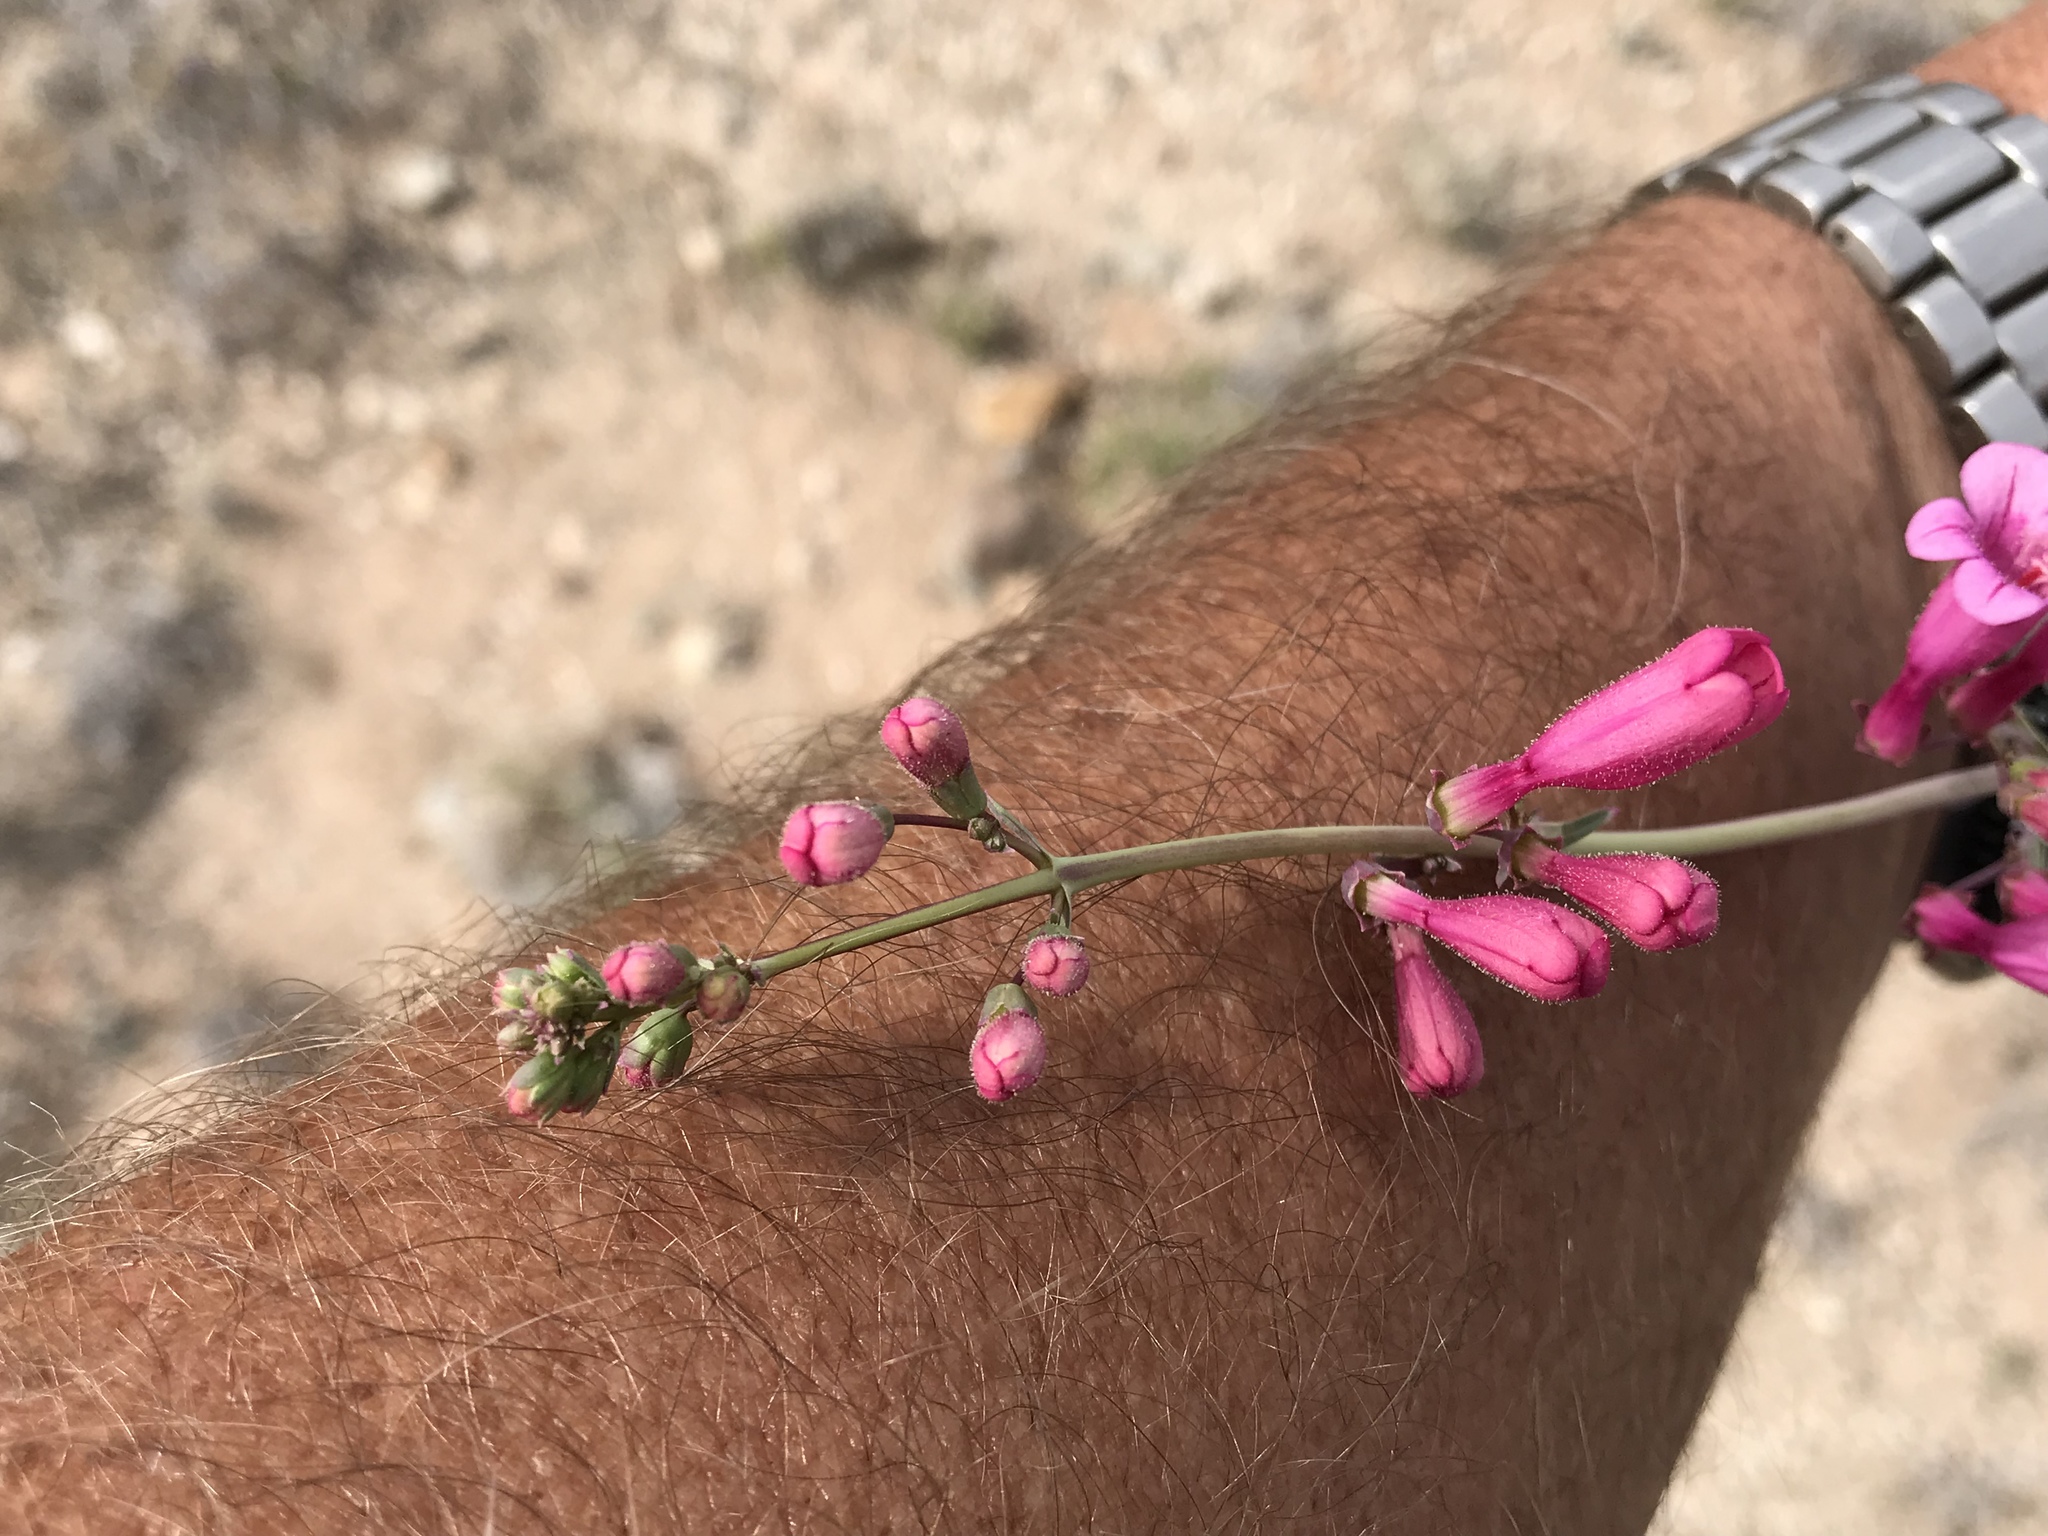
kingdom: Plantae
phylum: Tracheophyta
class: Magnoliopsida
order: Lamiales
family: Plantaginaceae
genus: Penstemon
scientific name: Penstemon parryi
